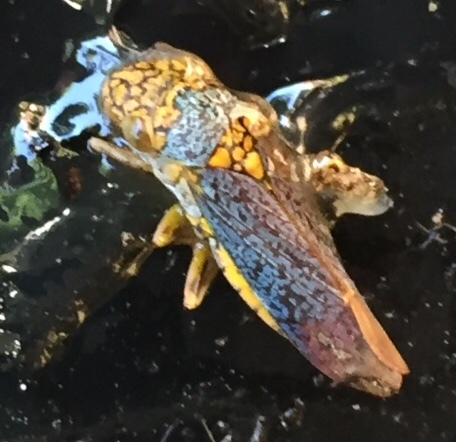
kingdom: Animalia
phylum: Arthropoda
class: Insecta
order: Hemiptera
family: Cicadellidae
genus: Oncometopia
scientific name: Oncometopia orbona
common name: Broad-headed sharpshooter
